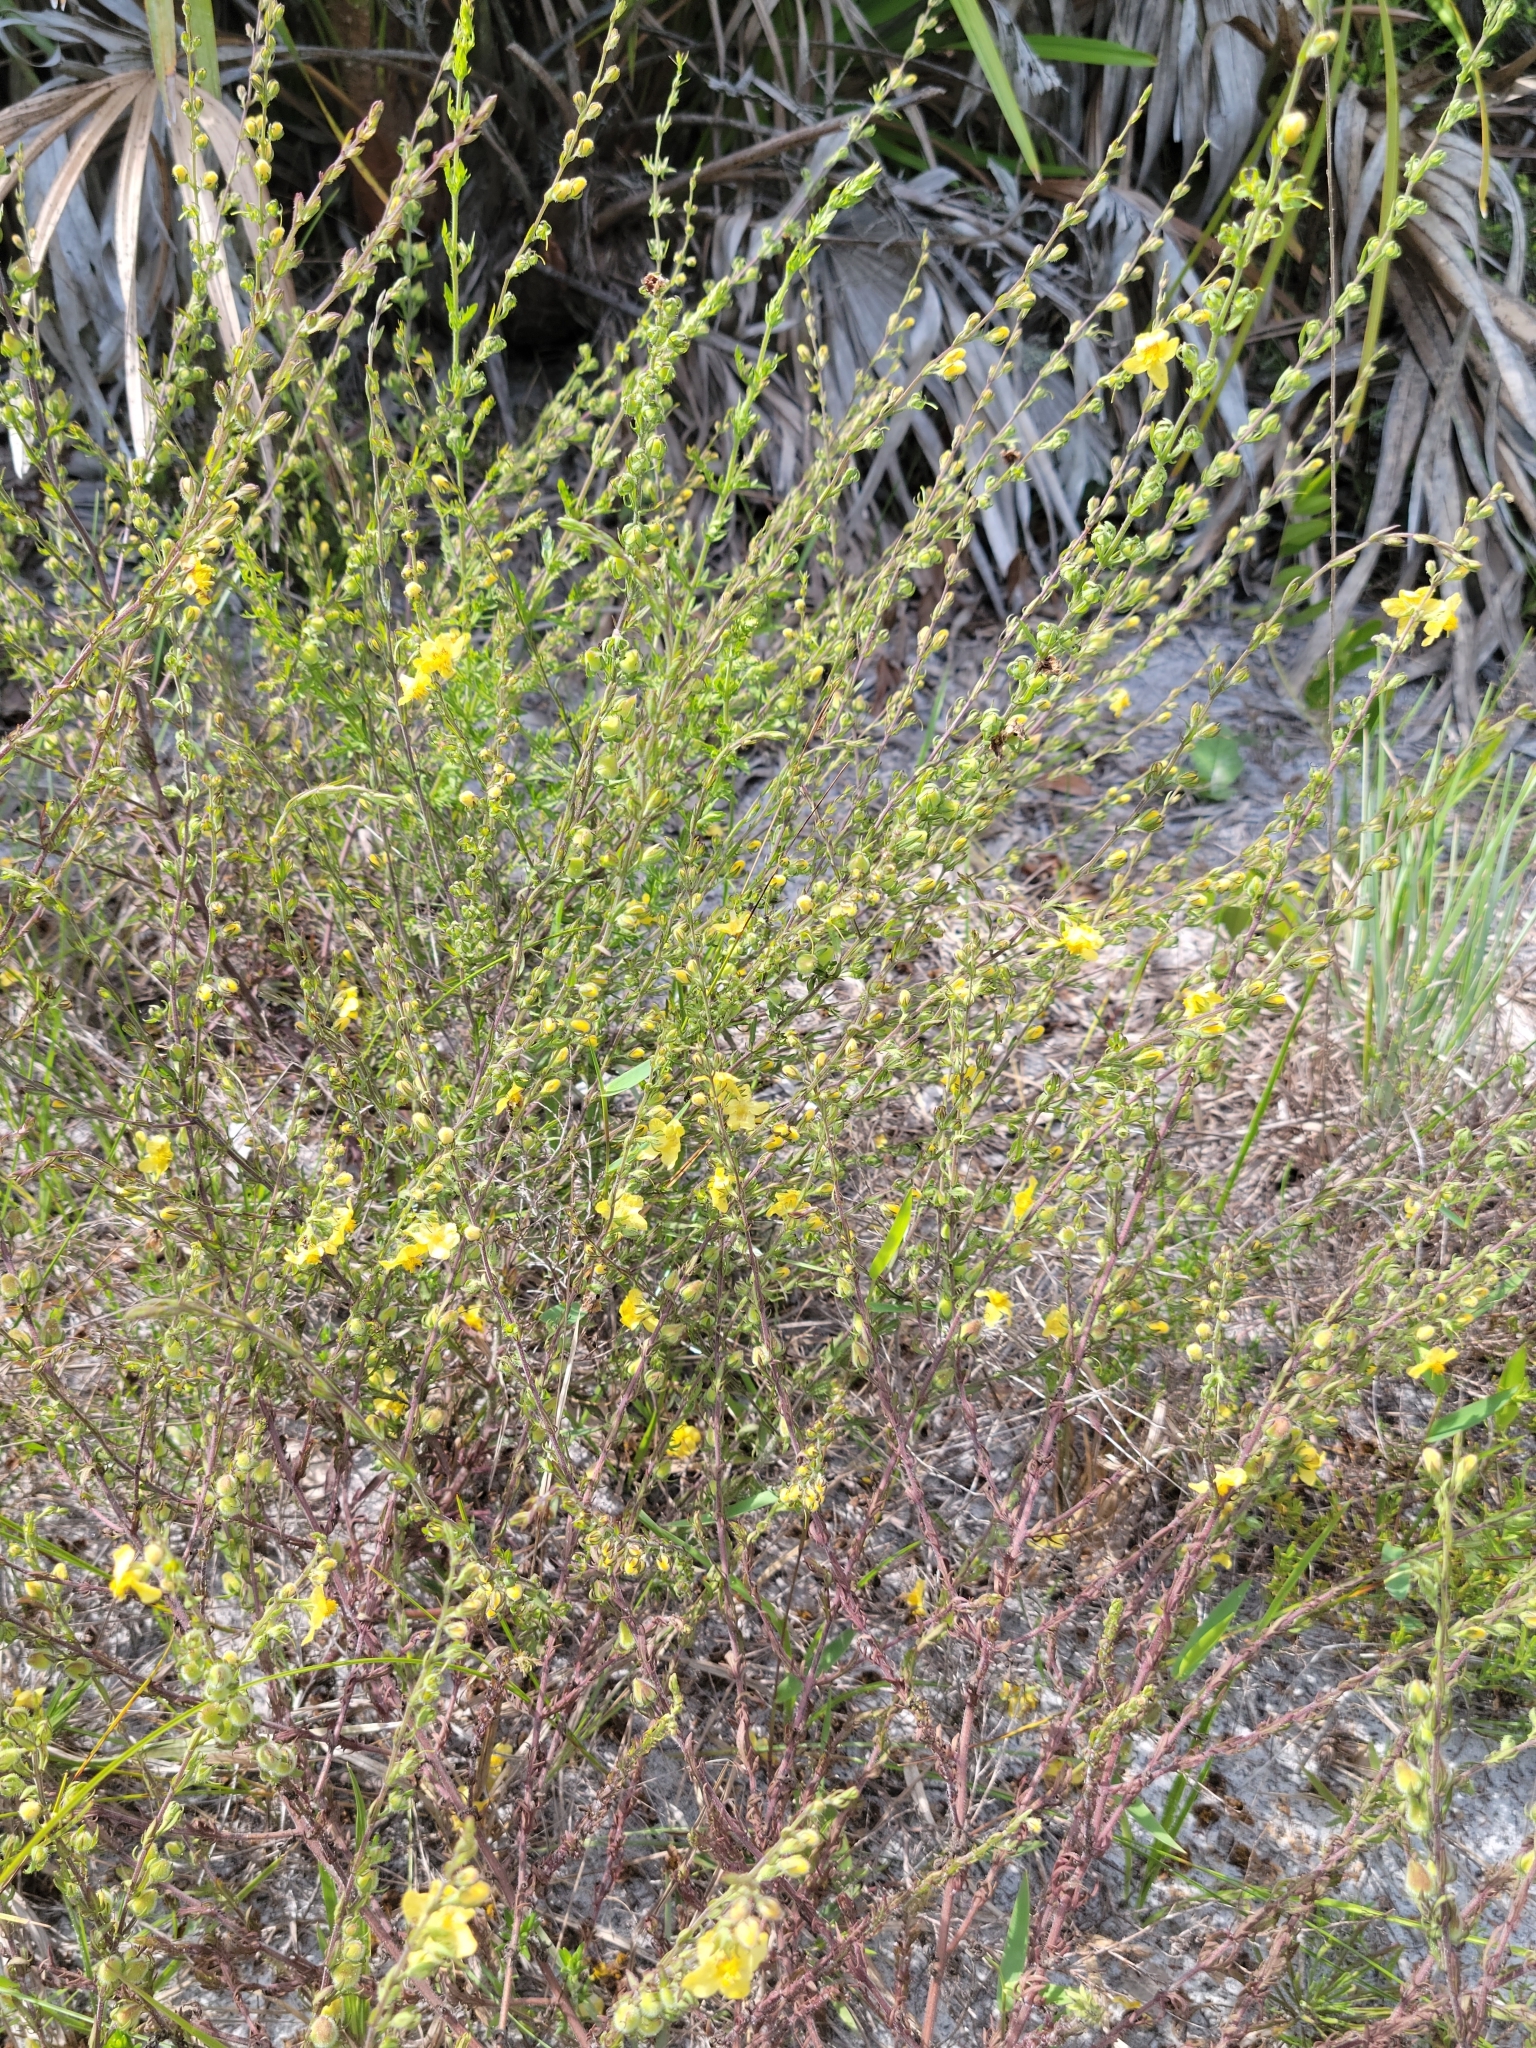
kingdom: Plantae
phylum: Tracheophyta
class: Magnoliopsida
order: Lamiales
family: Orobanchaceae
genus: Seymeria
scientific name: Seymeria pectinata
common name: Piedmont black-senna
